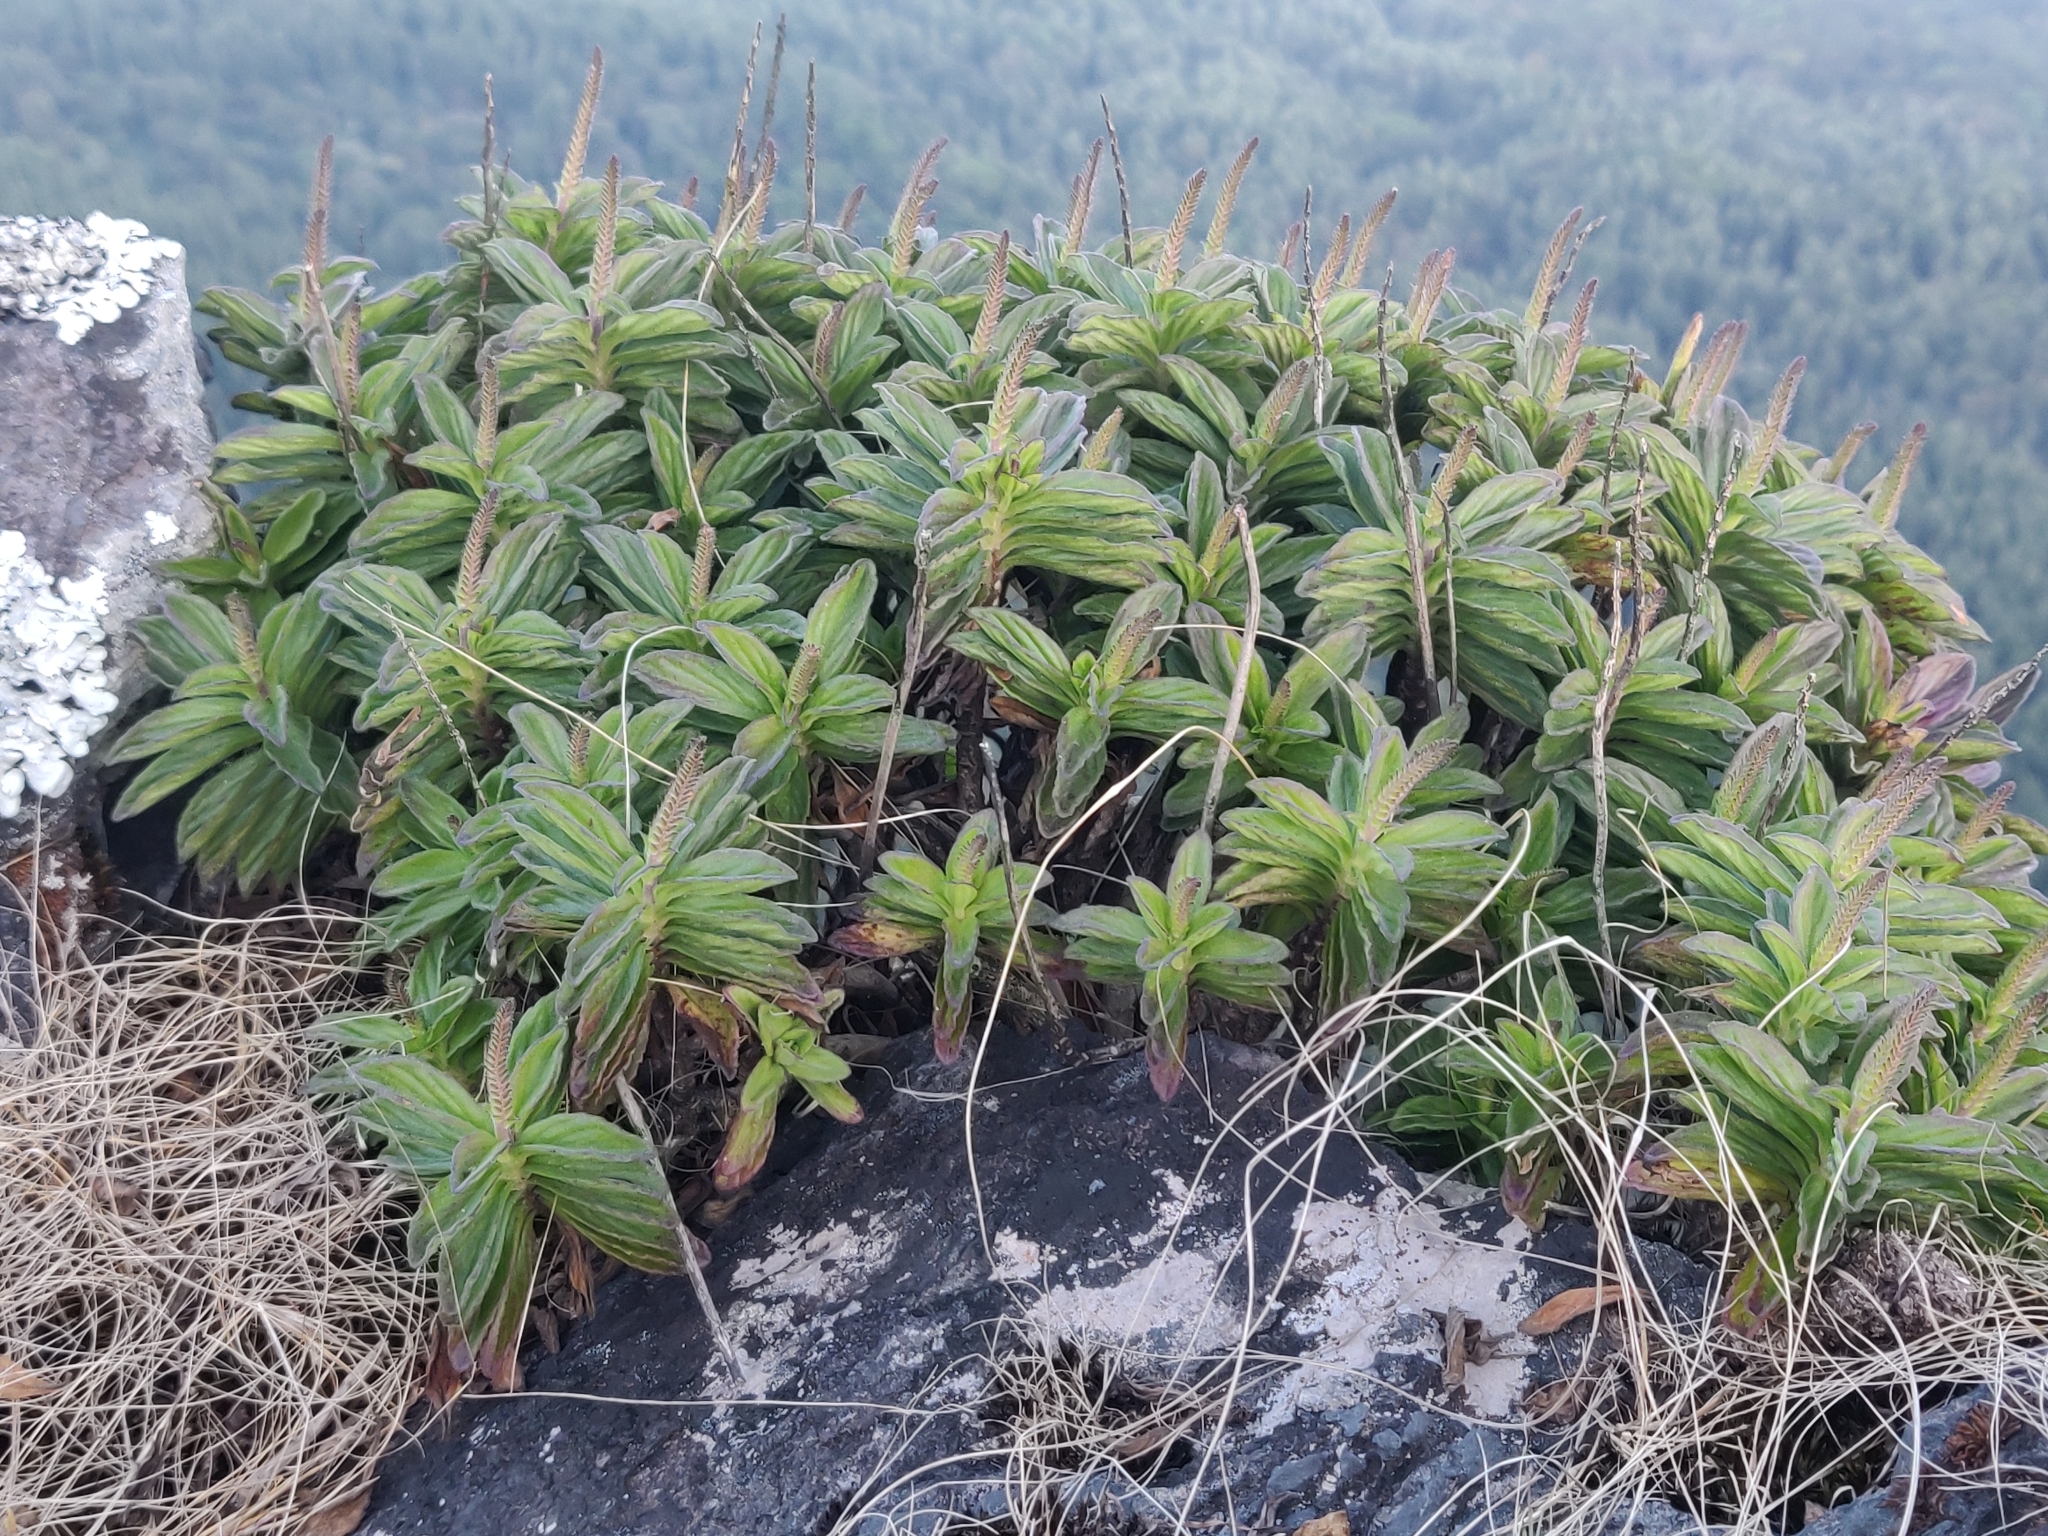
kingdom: Plantae
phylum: Tracheophyta
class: Magnoliopsida
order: Lamiales
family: Lamiaceae
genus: Coleus
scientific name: Coleus plantagineus
